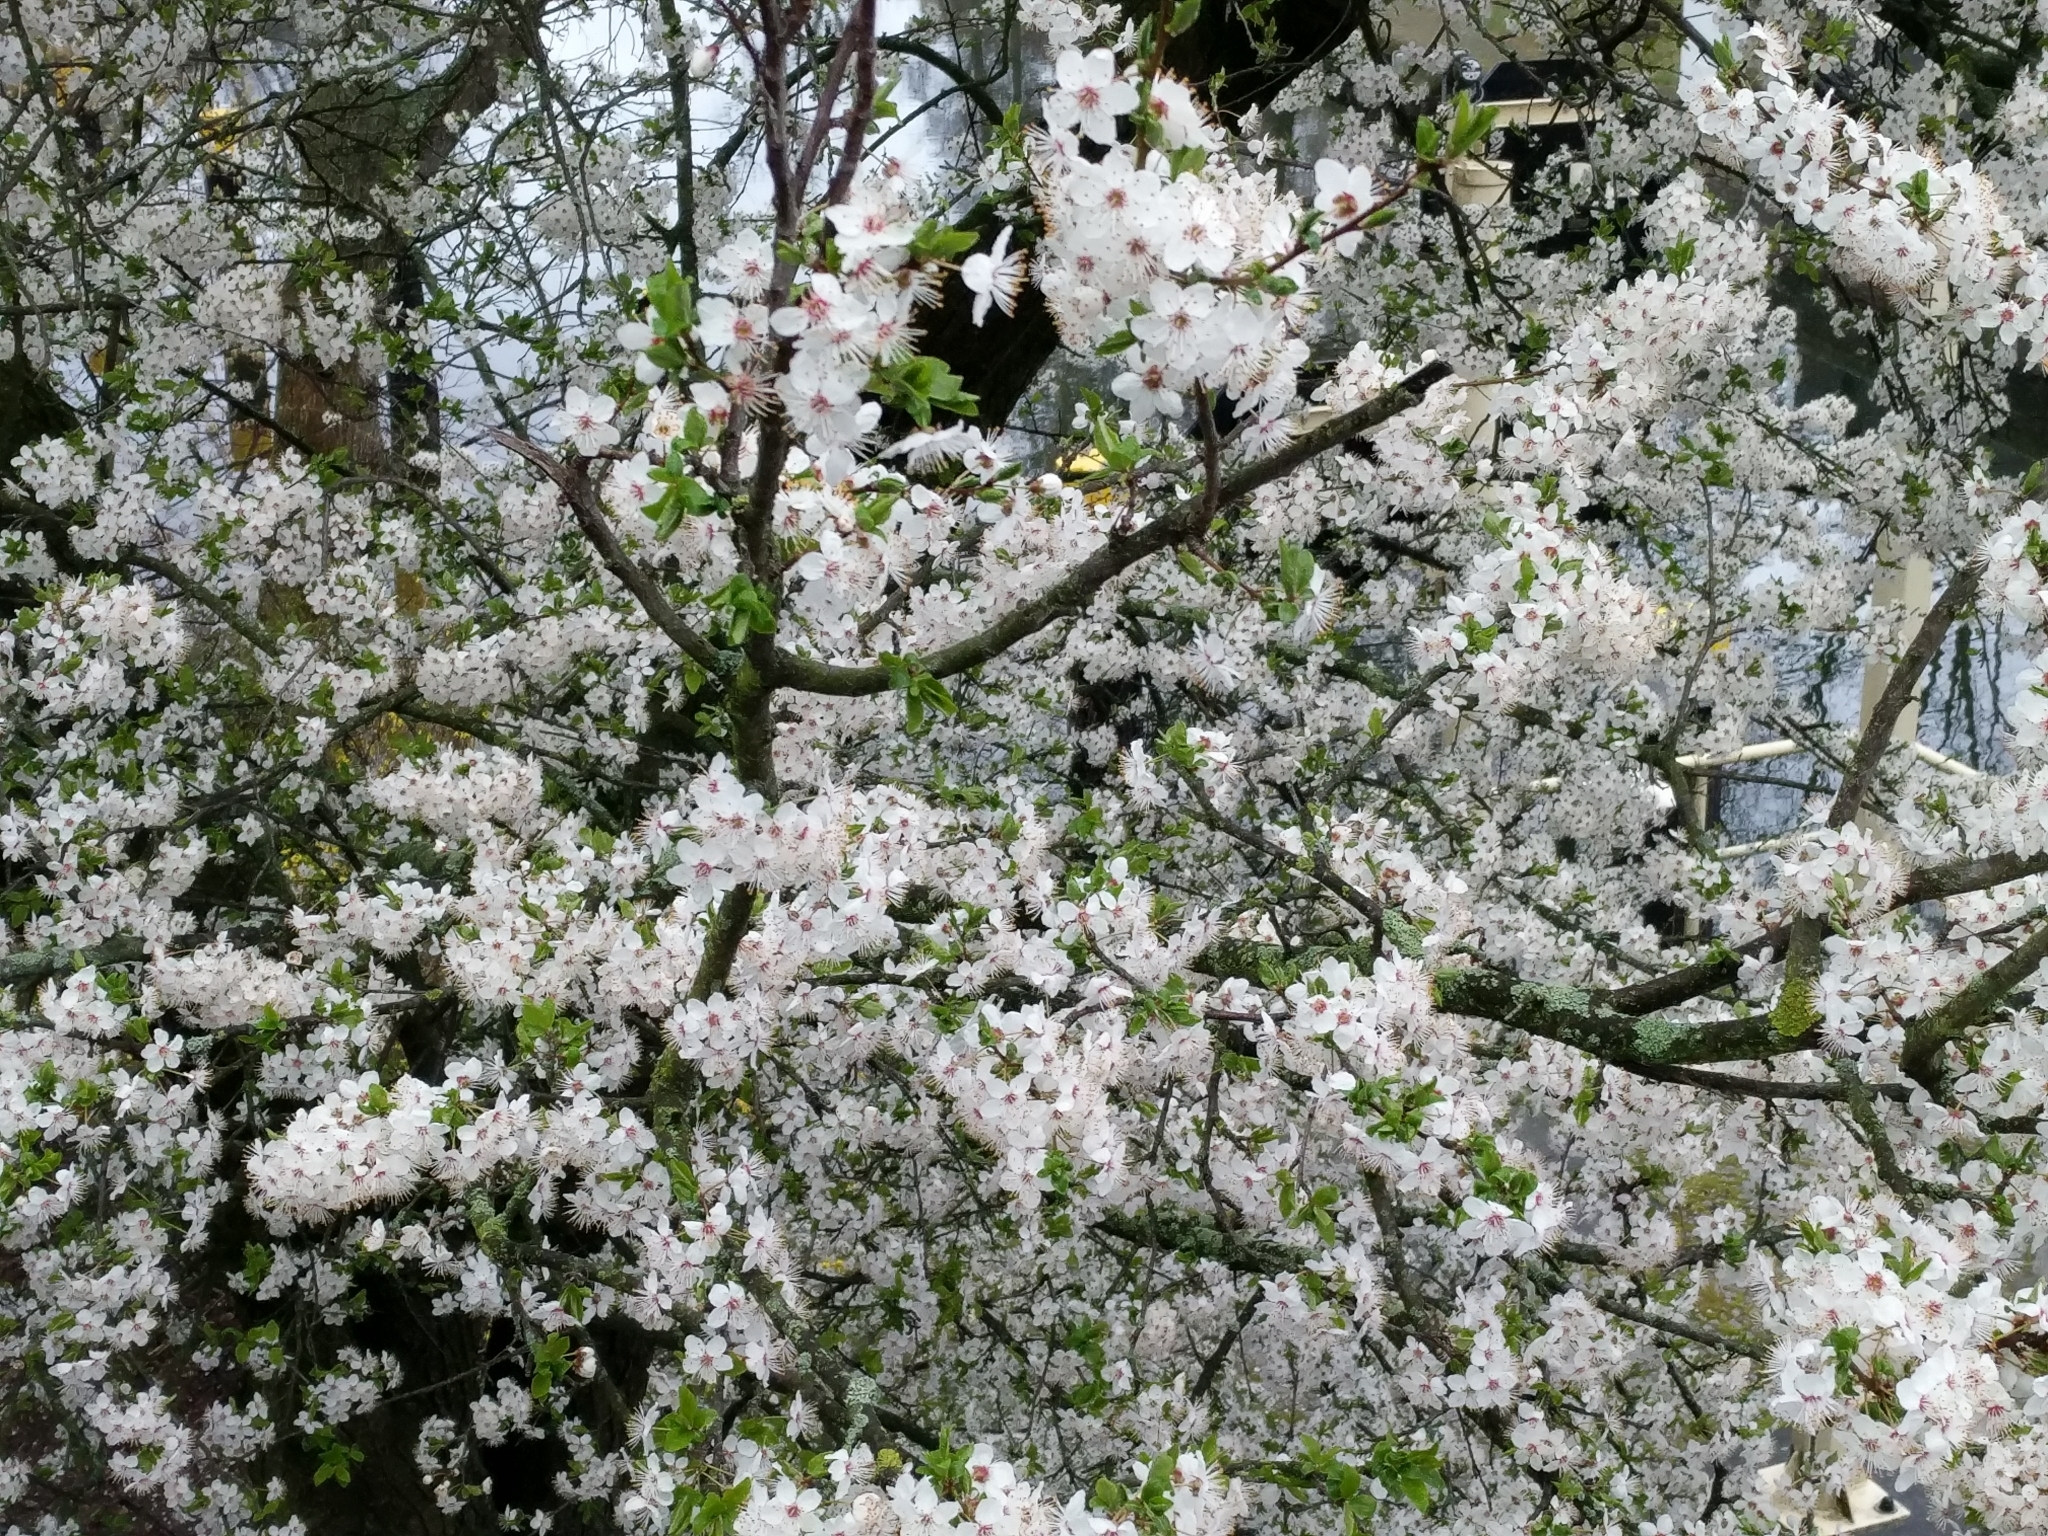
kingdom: Plantae
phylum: Tracheophyta
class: Magnoliopsida
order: Rosales
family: Rosaceae
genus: Prunus
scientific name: Prunus cerasifera
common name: Cherry plum
